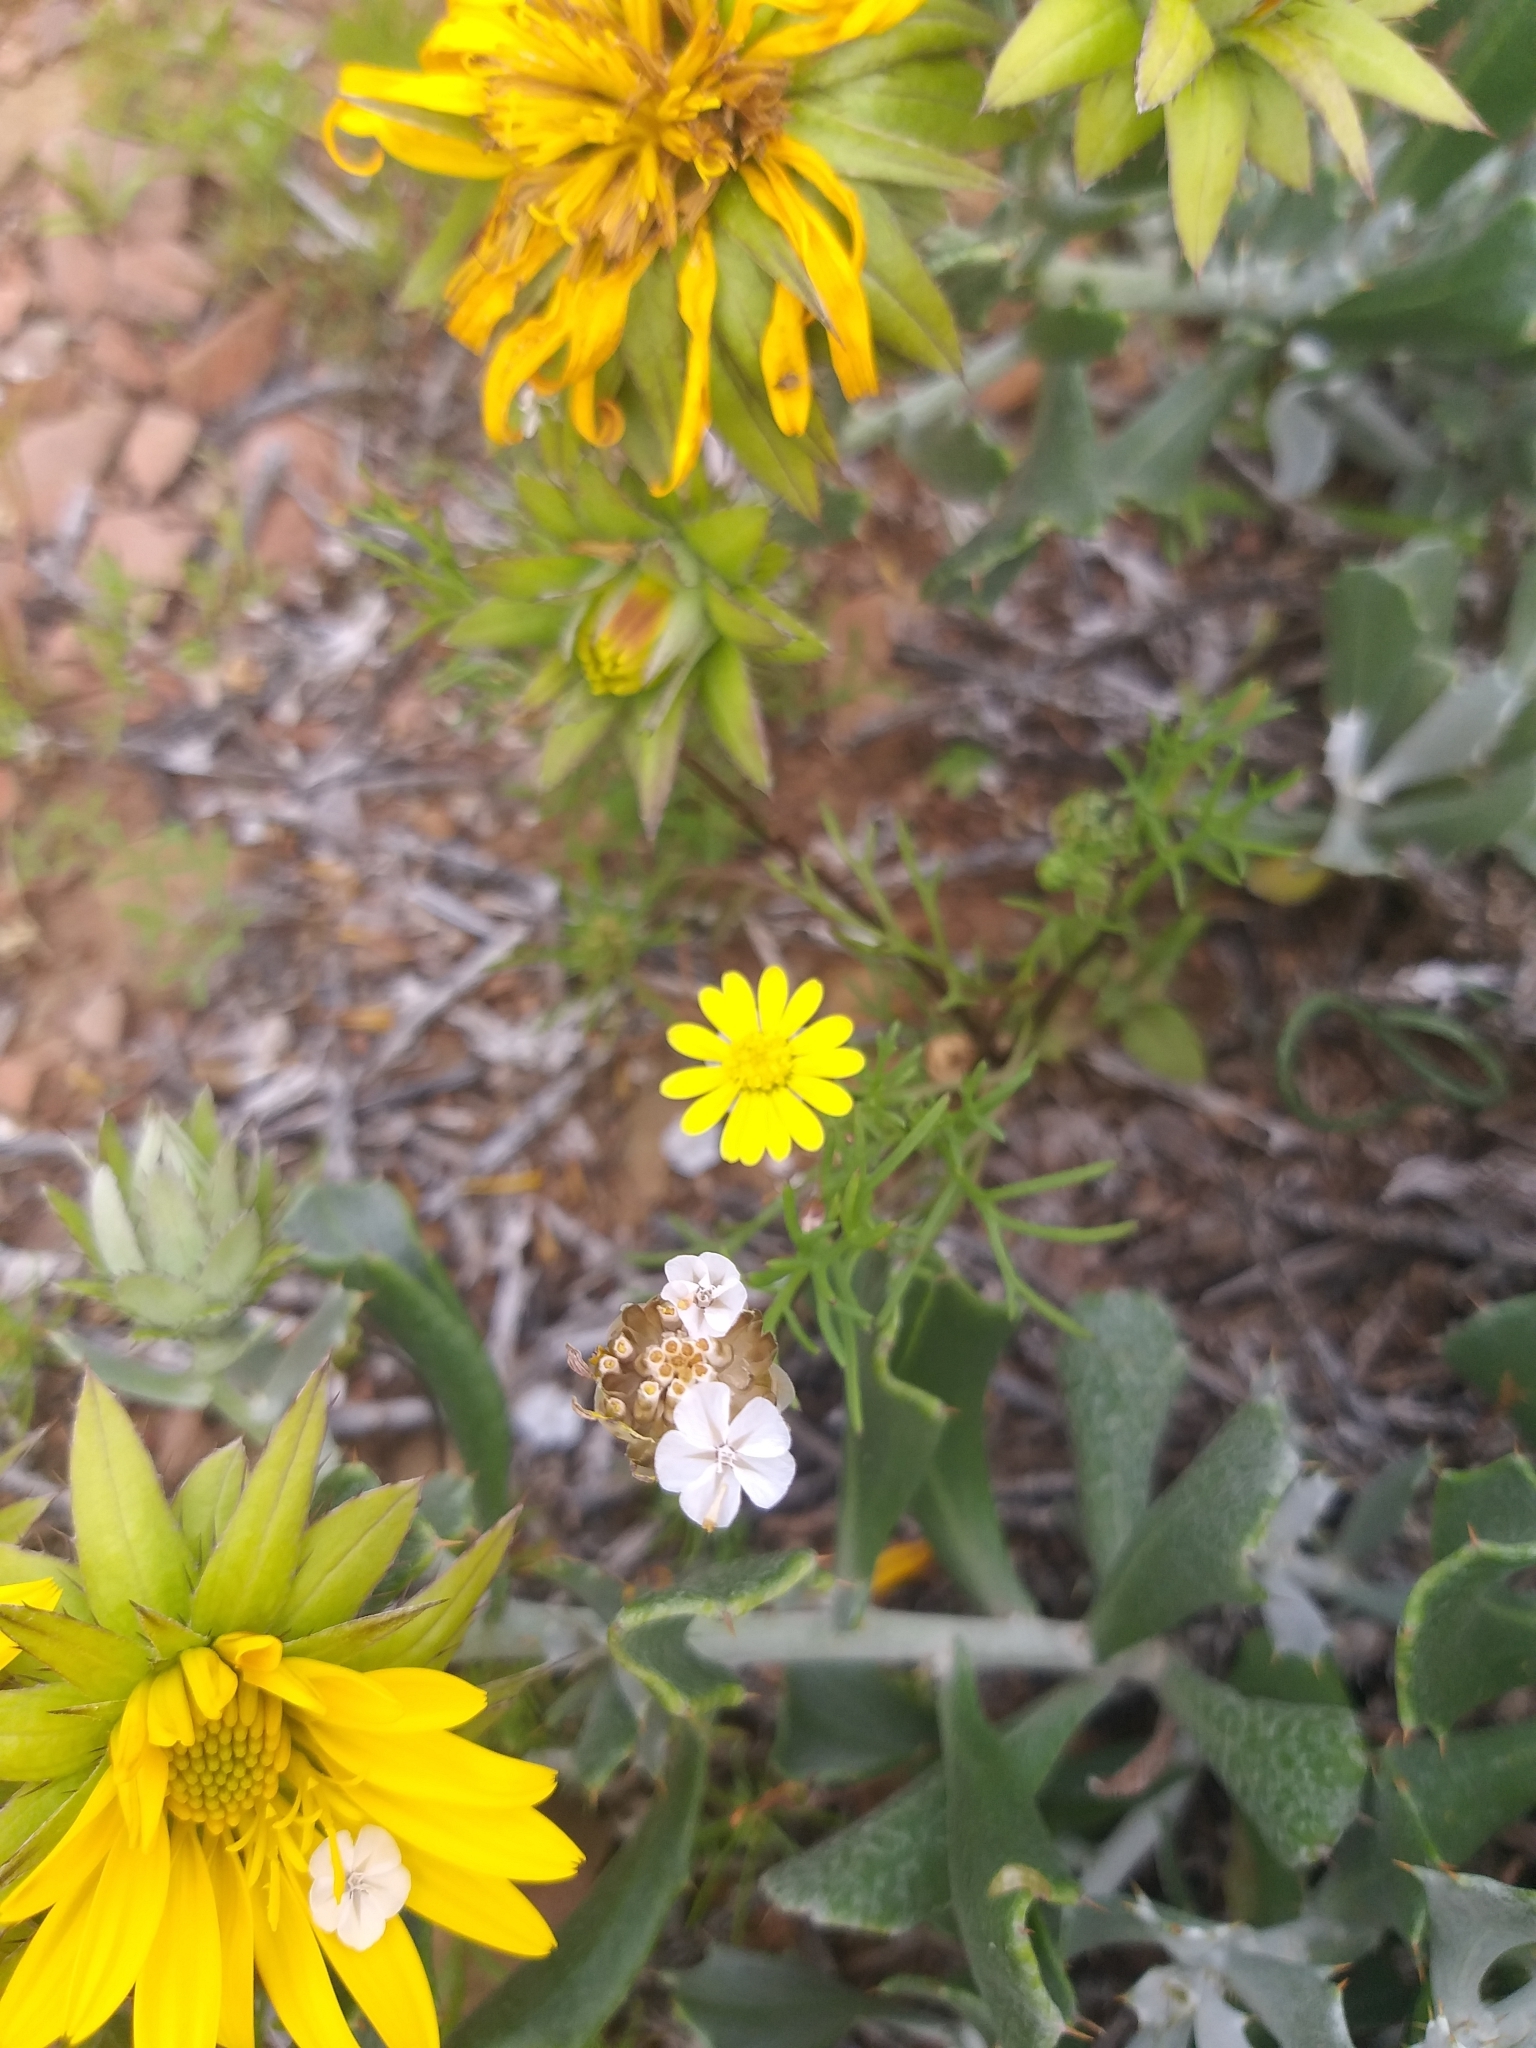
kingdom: Plantae
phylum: Tracheophyta
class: Magnoliopsida
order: Asterales
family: Asteraceae
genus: Ursinia
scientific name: Ursinia nana
